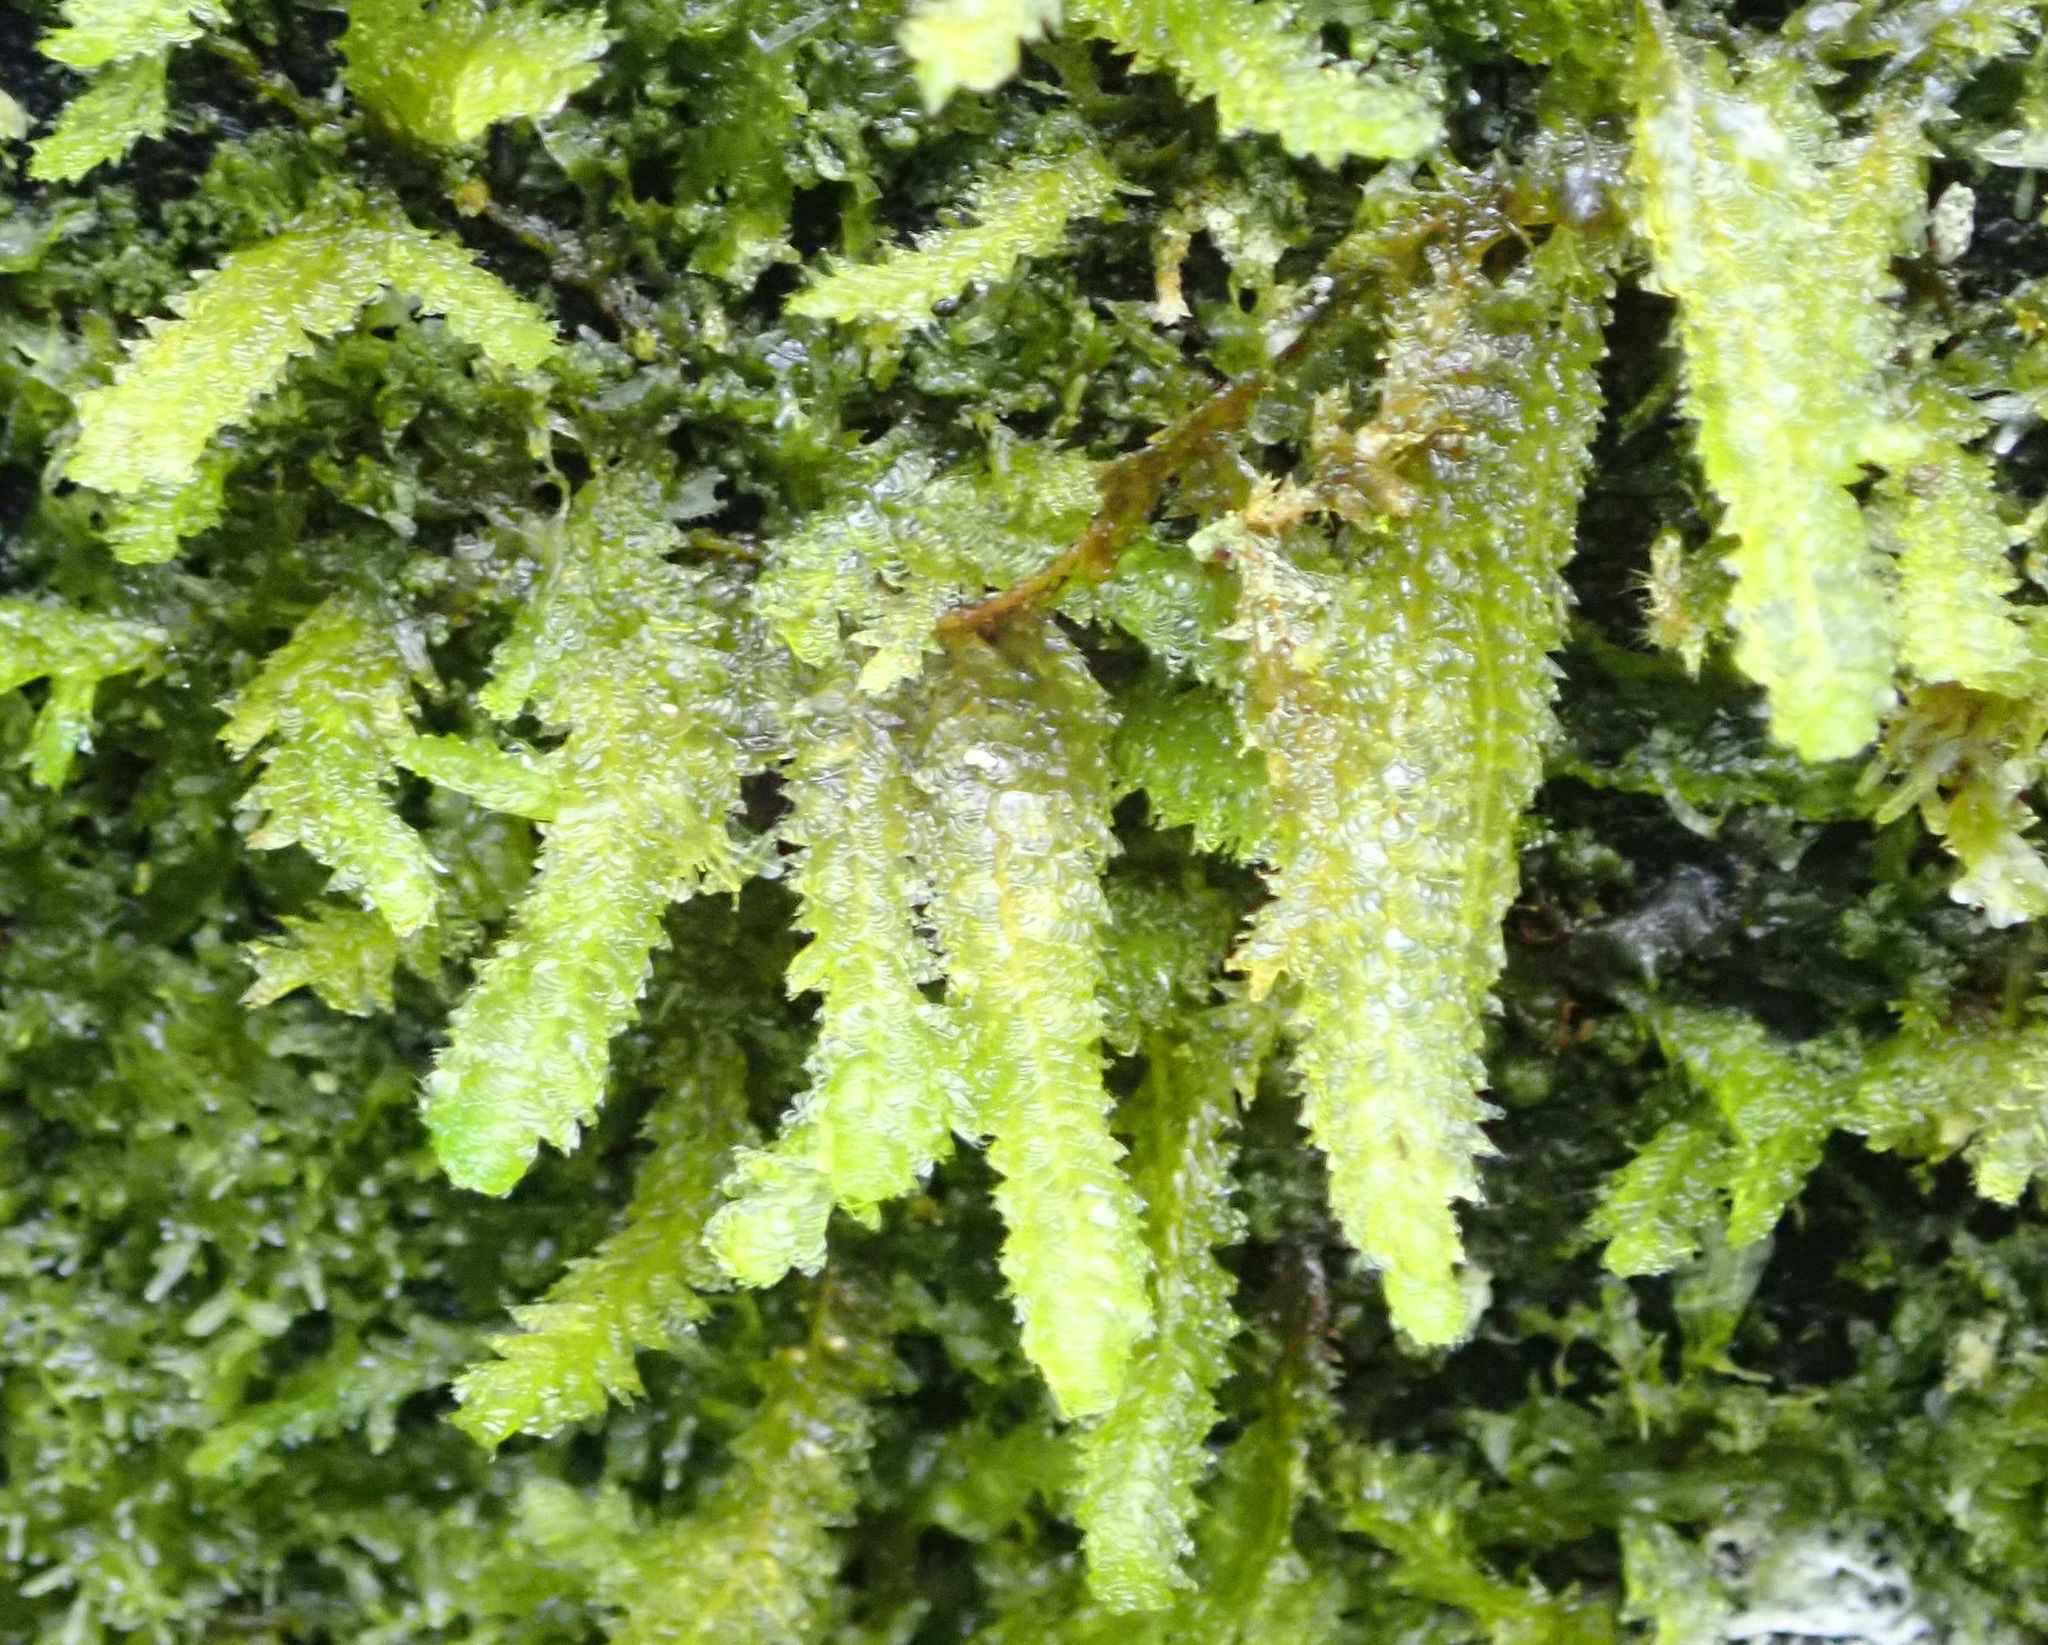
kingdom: Plantae
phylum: Bryophyta
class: Bryopsida
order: Hypnales
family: Neckeraceae
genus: Alleniella
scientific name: Alleniella hymenodonta
